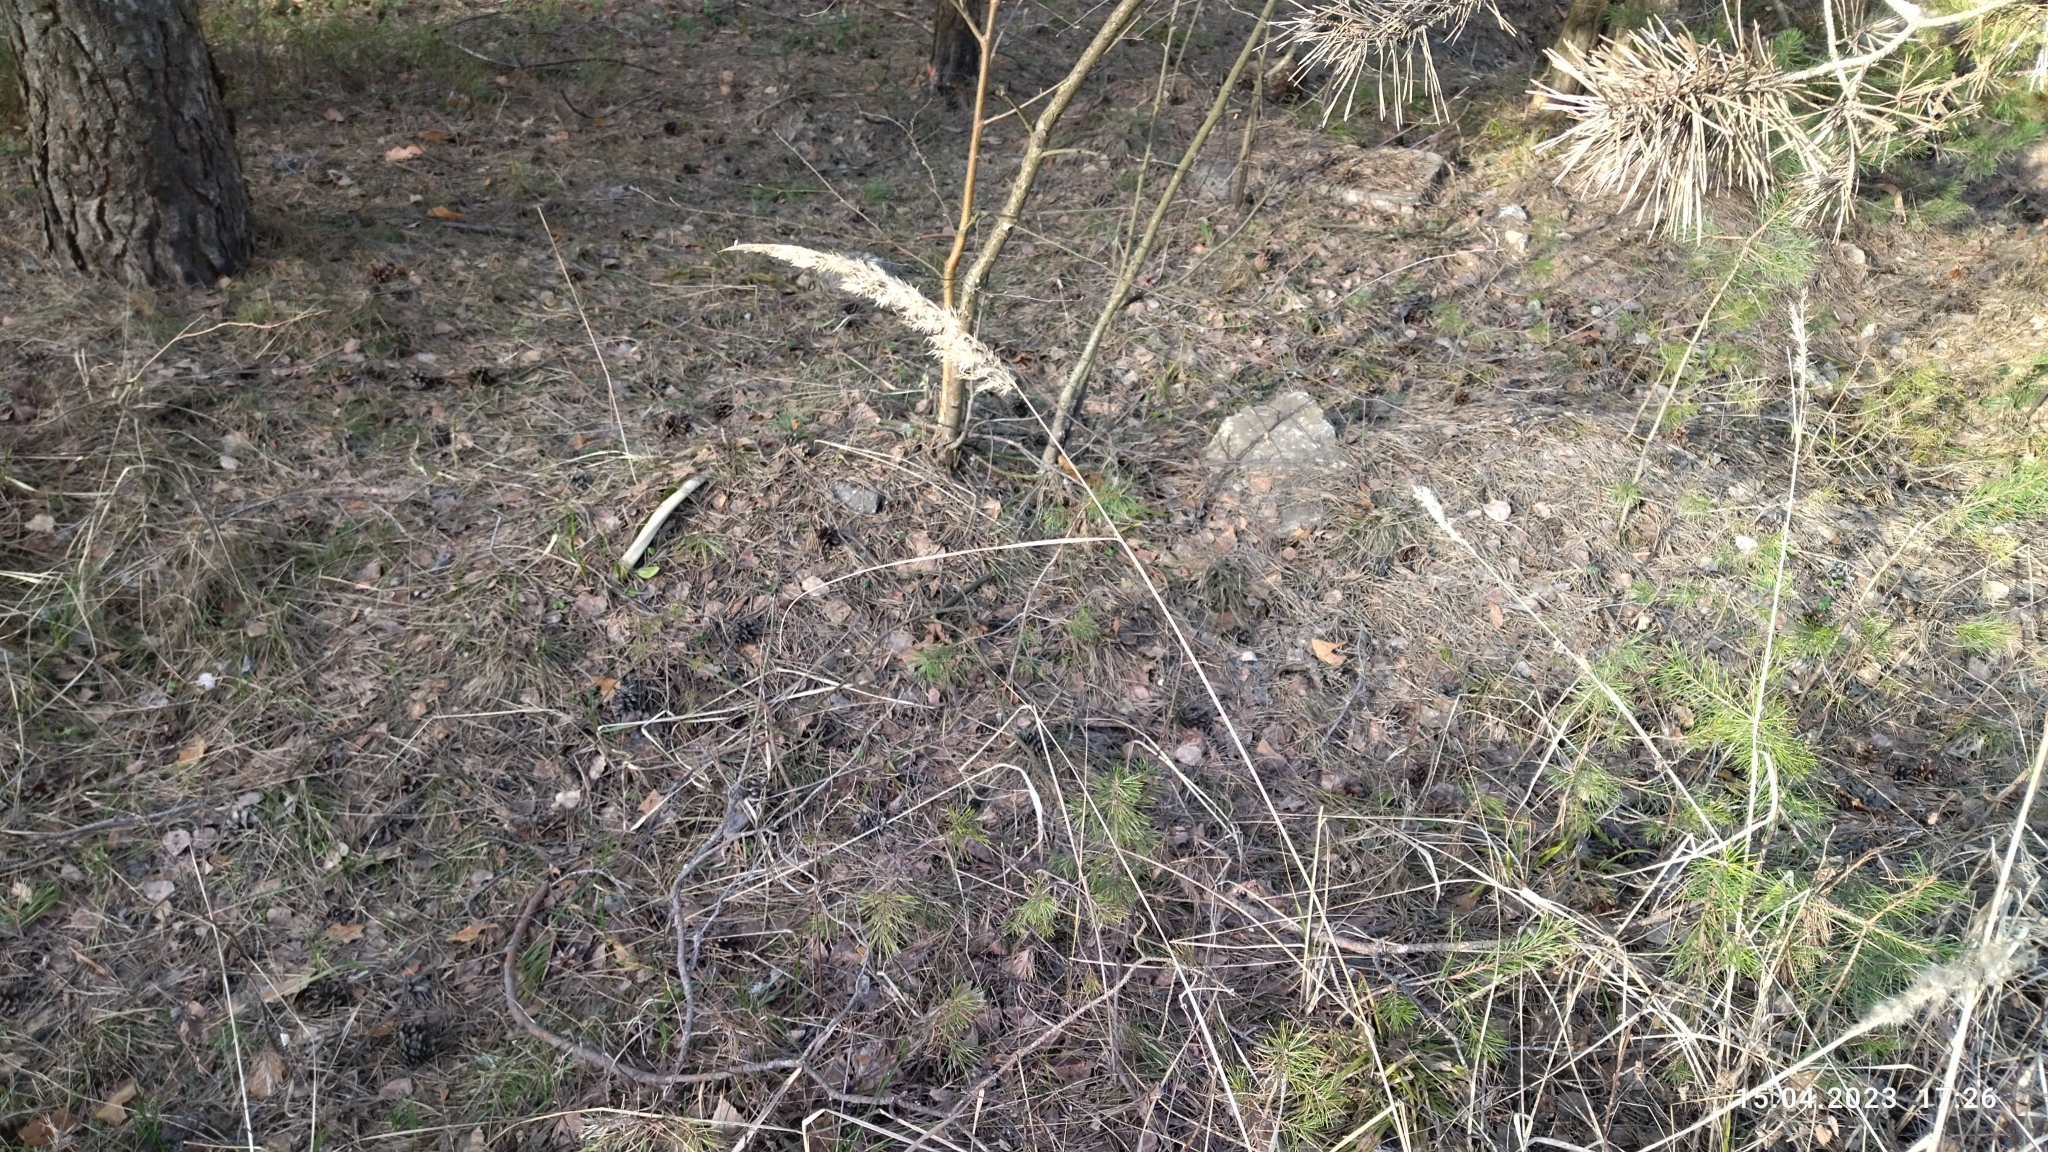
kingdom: Plantae
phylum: Tracheophyta
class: Liliopsida
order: Poales
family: Poaceae
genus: Calamagrostis
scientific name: Calamagrostis epigejos
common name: Wood small-reed
